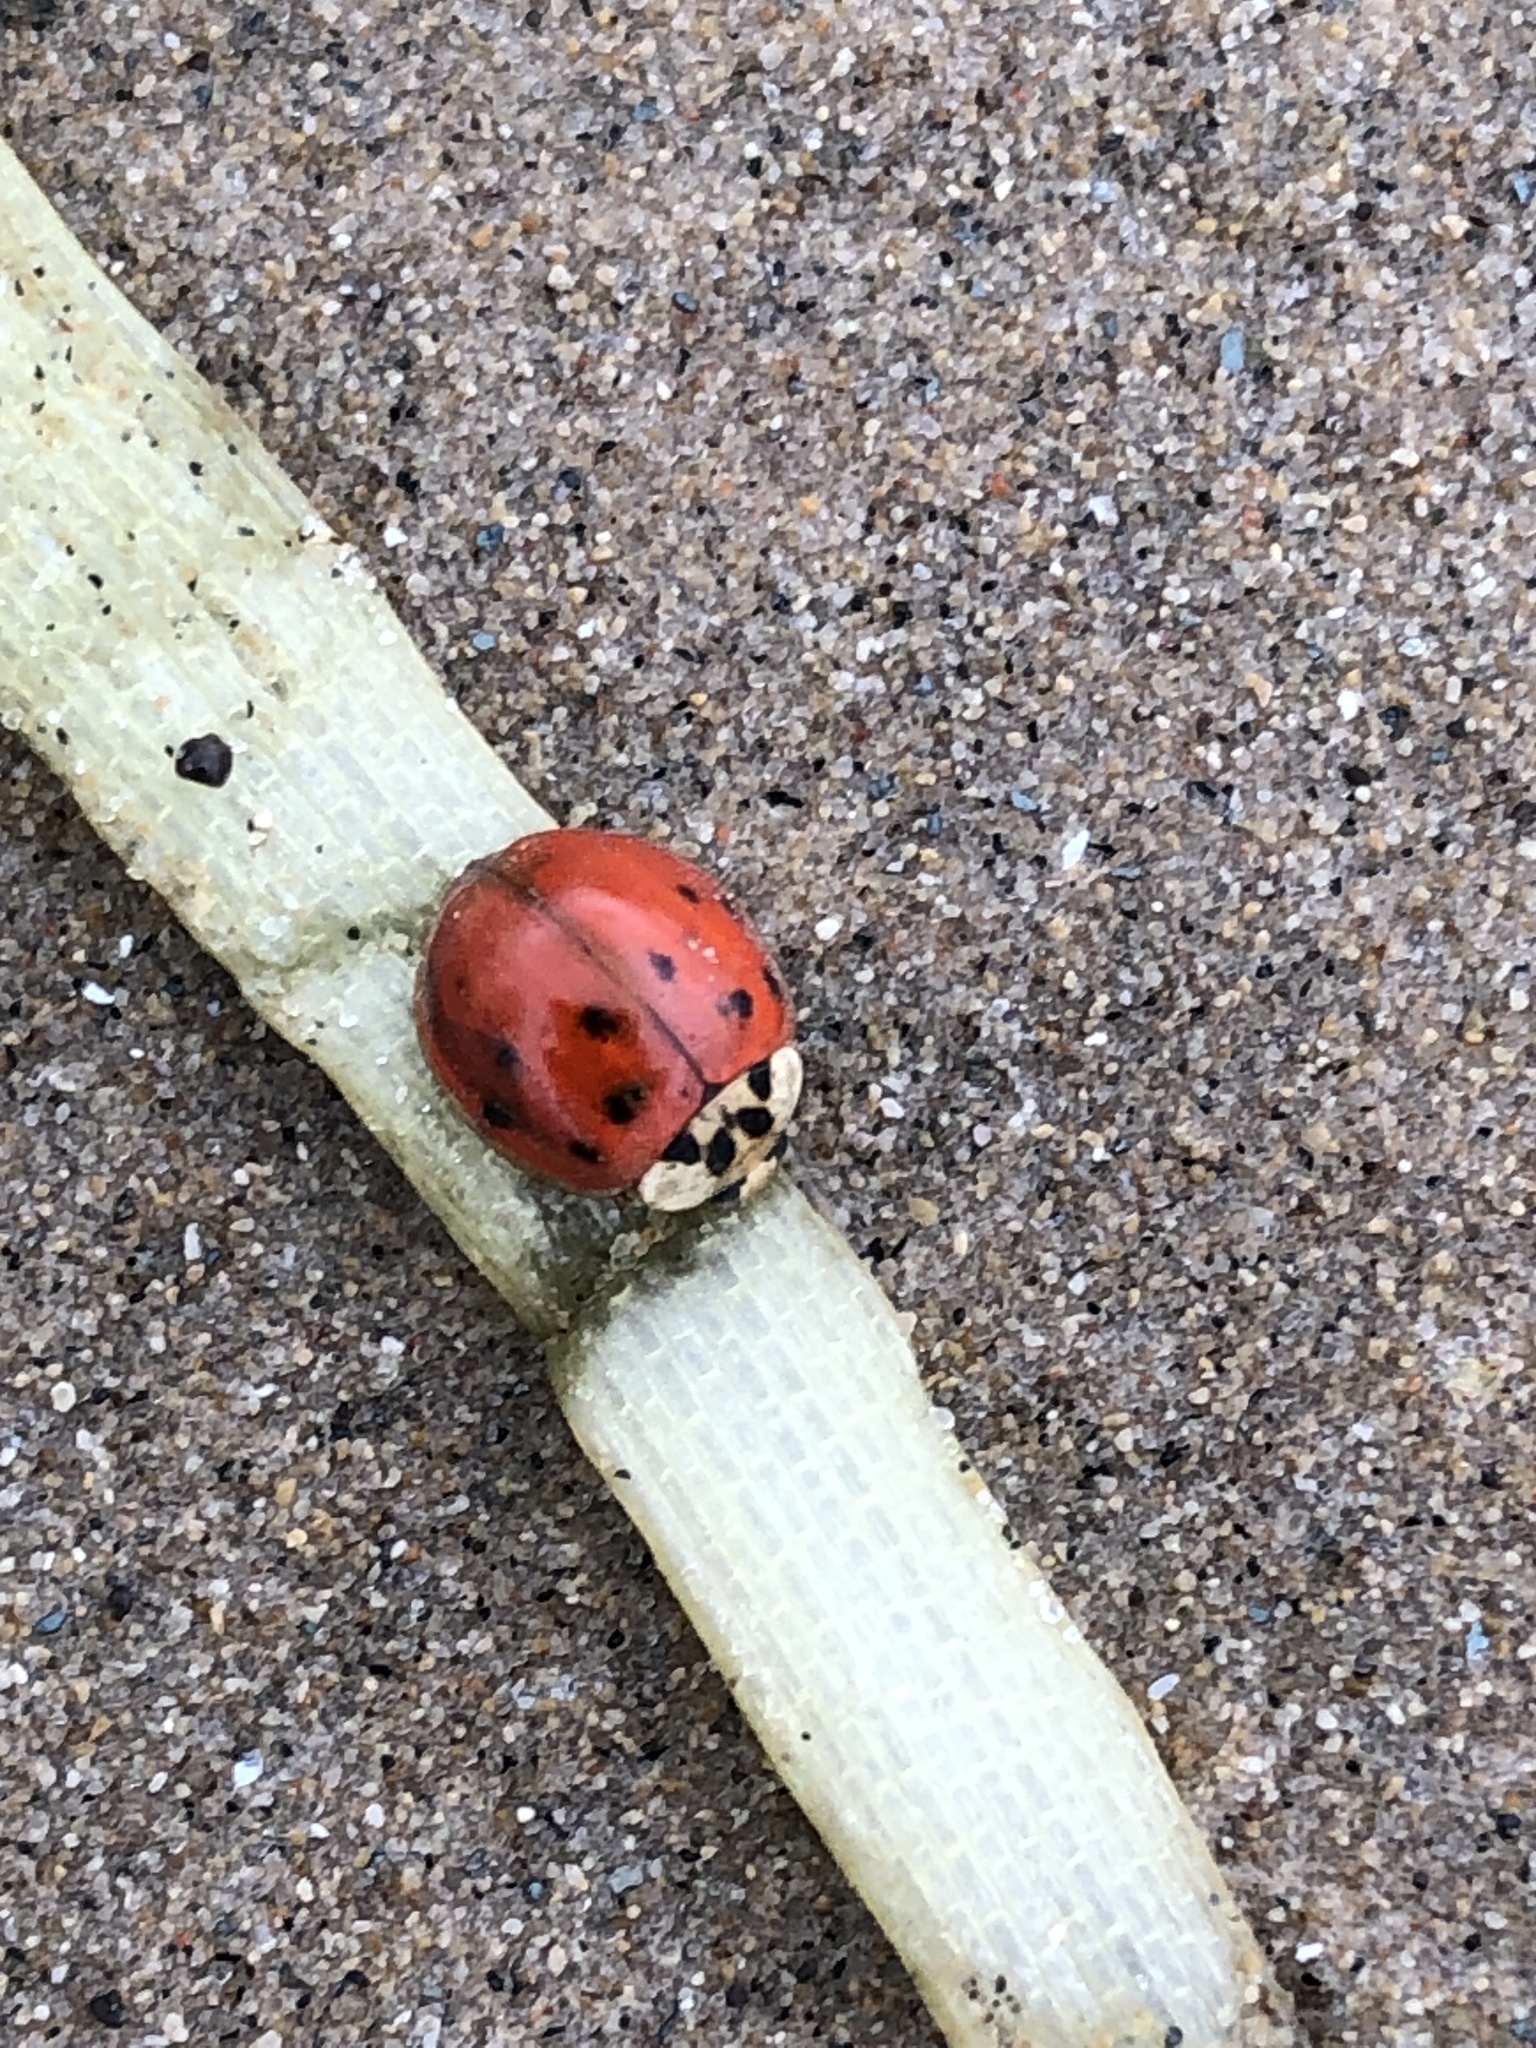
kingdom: Animalia
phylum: Arthropoda
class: Insecta
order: Coleoptera
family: Coccinellidae
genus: Harmonia
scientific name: Harmonia axyridis
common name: Harlequin ladybird
